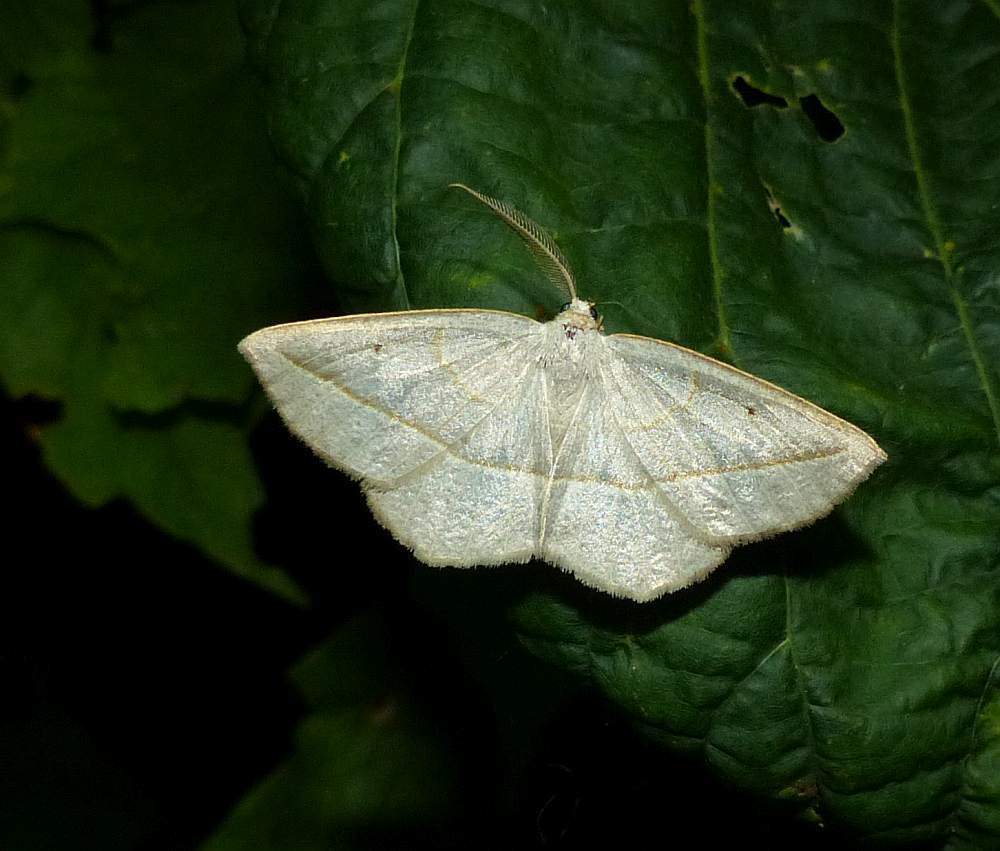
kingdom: Animalia
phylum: Arthropoda
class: Insecta
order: Lepidoptera
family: Geometridae
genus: Eusarca
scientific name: Eusarca confusaria
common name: Confused eusarca
